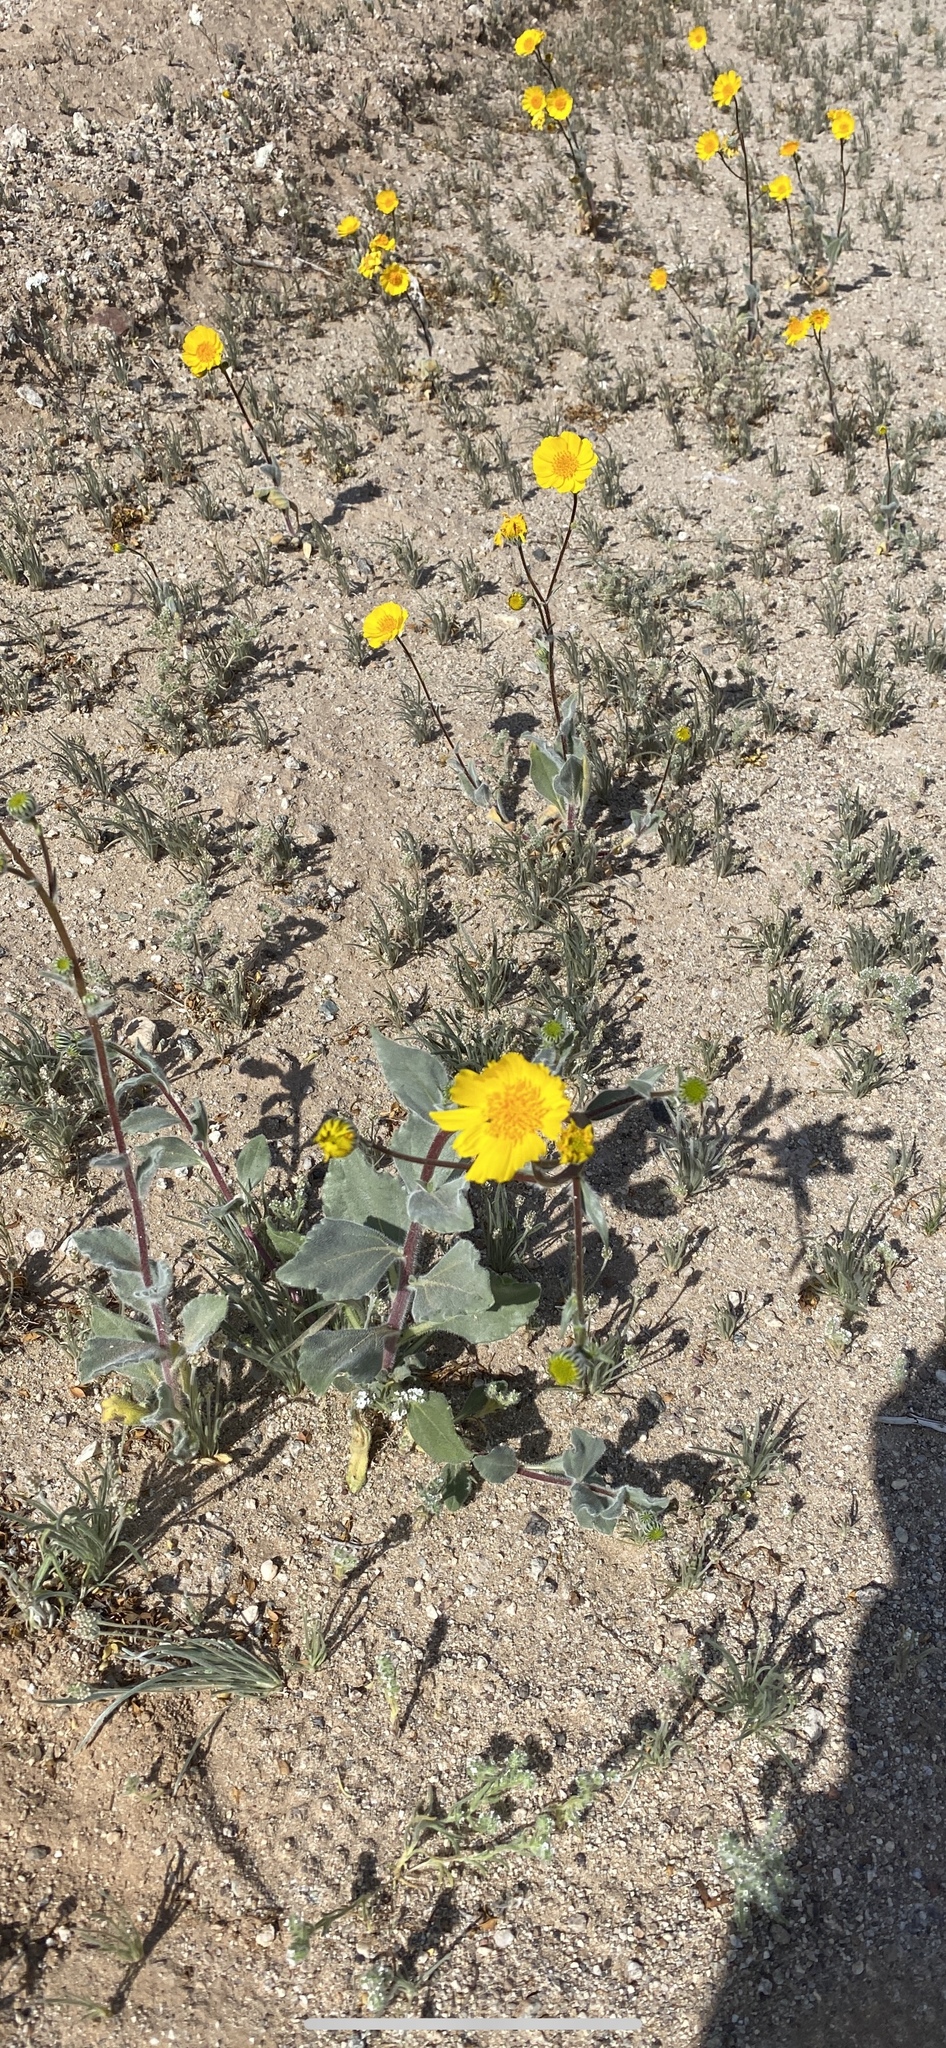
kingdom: Plantae
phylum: Tracheophyta
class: Magnoliopsida
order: Asterales
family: Asteraceae
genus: Geraea
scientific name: Geraea canescens
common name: Desert-gold
